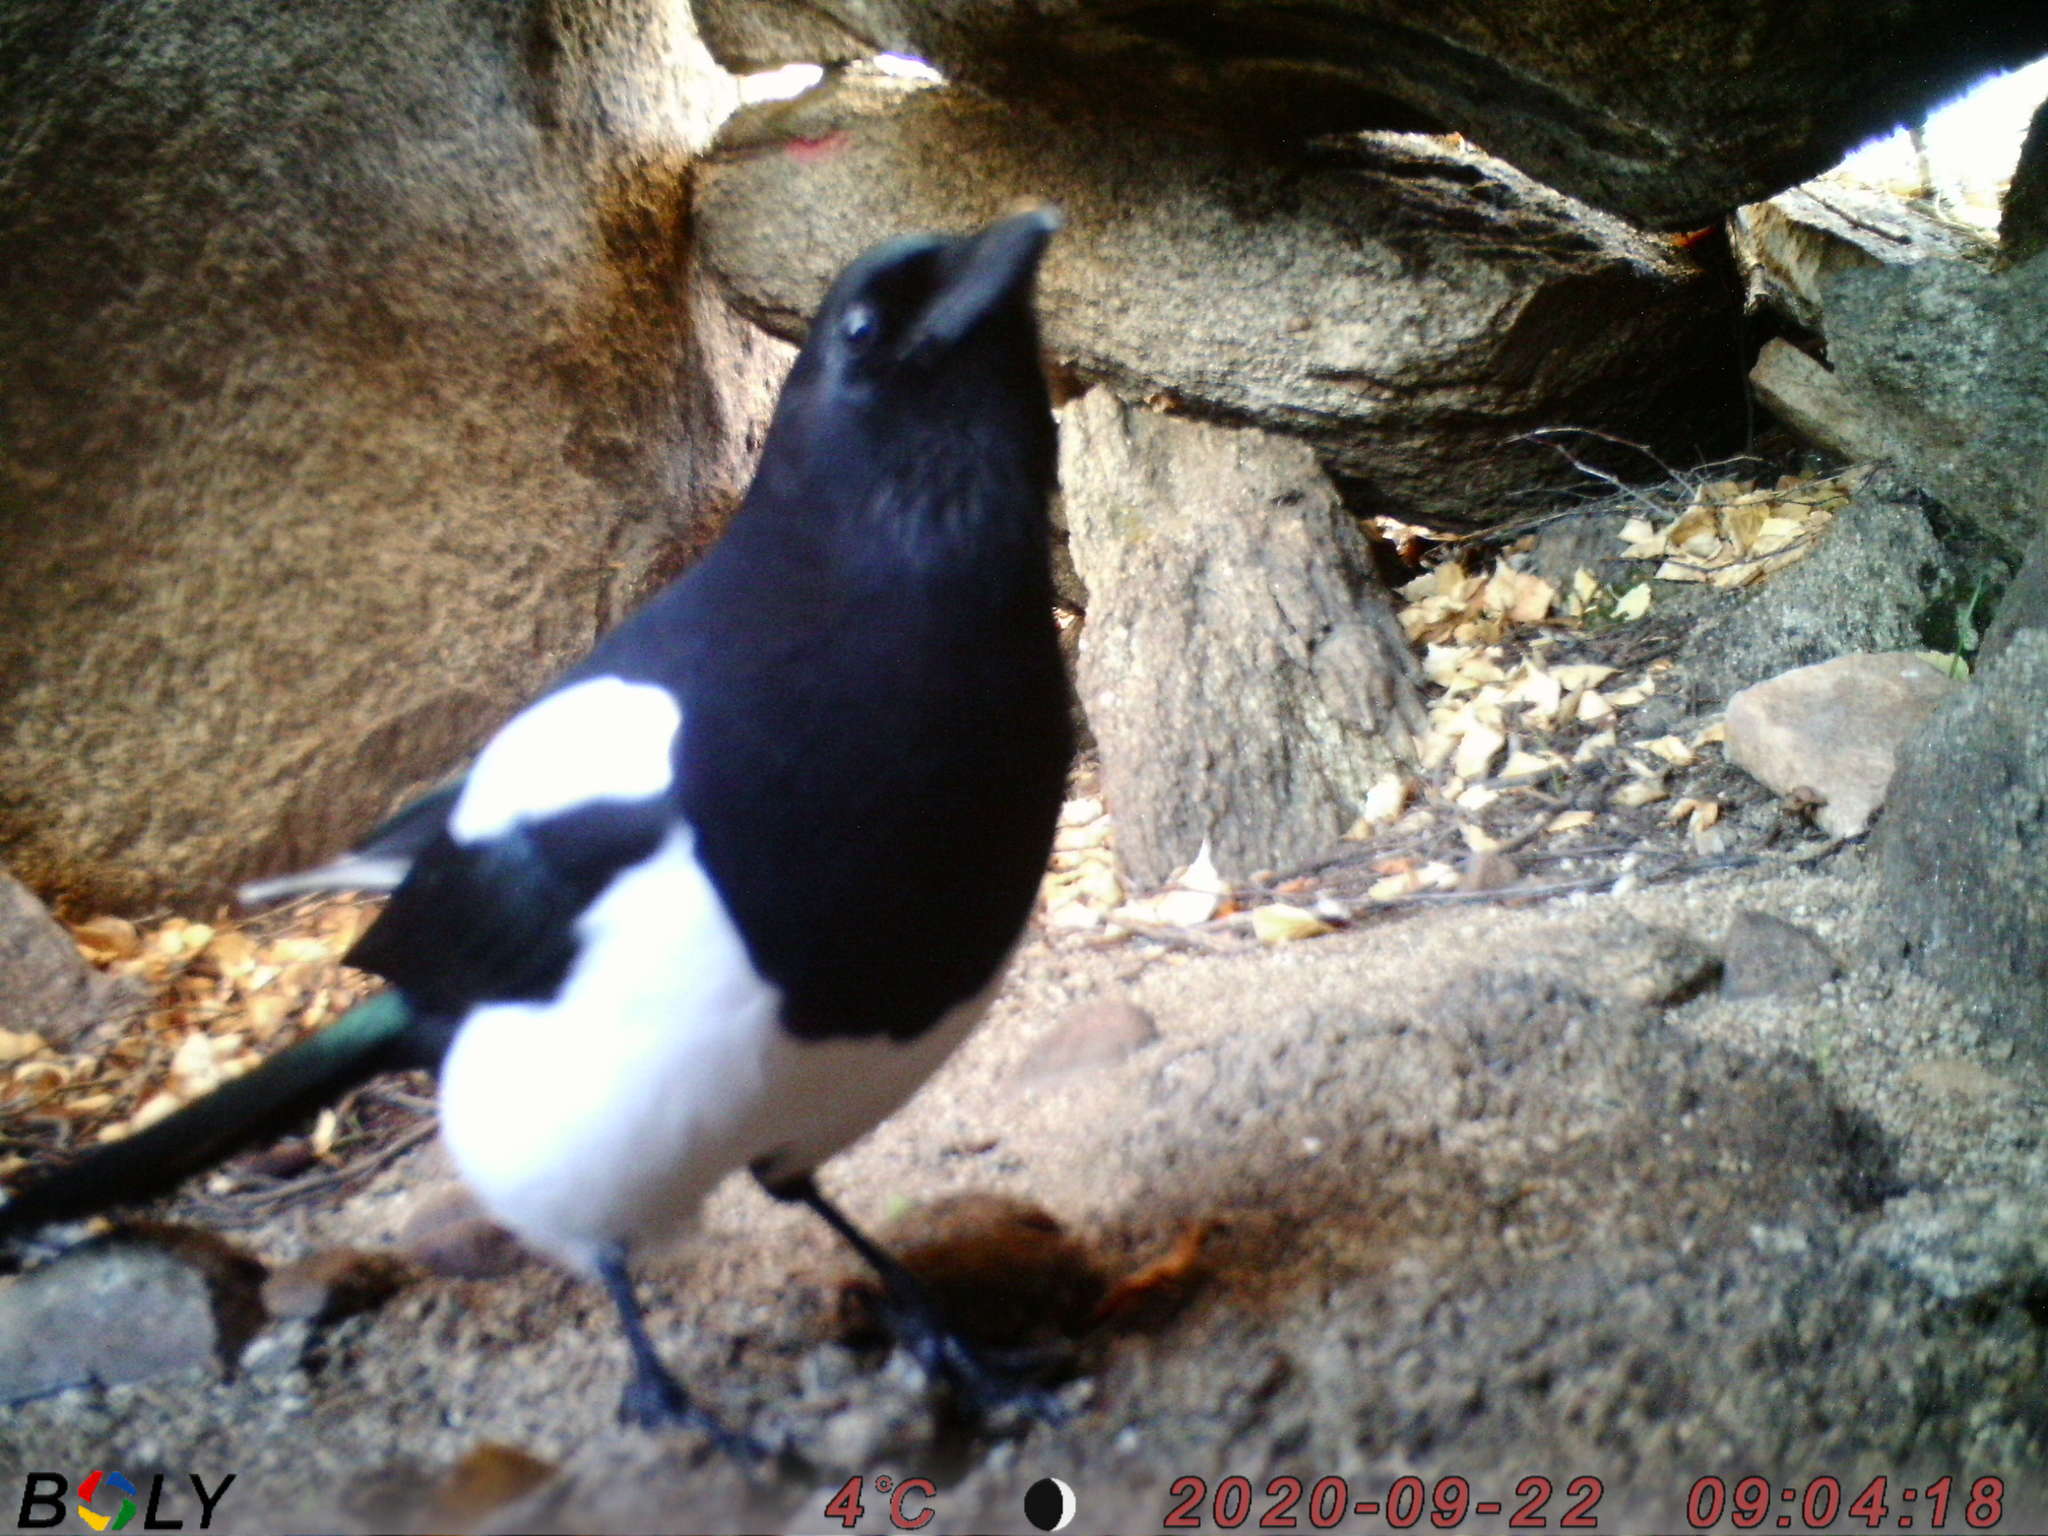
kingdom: Animalia
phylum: Chordata
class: Aves
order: Passeriformes
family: Corvidae
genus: Pica
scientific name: Pica pica
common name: Eurasian magpie
